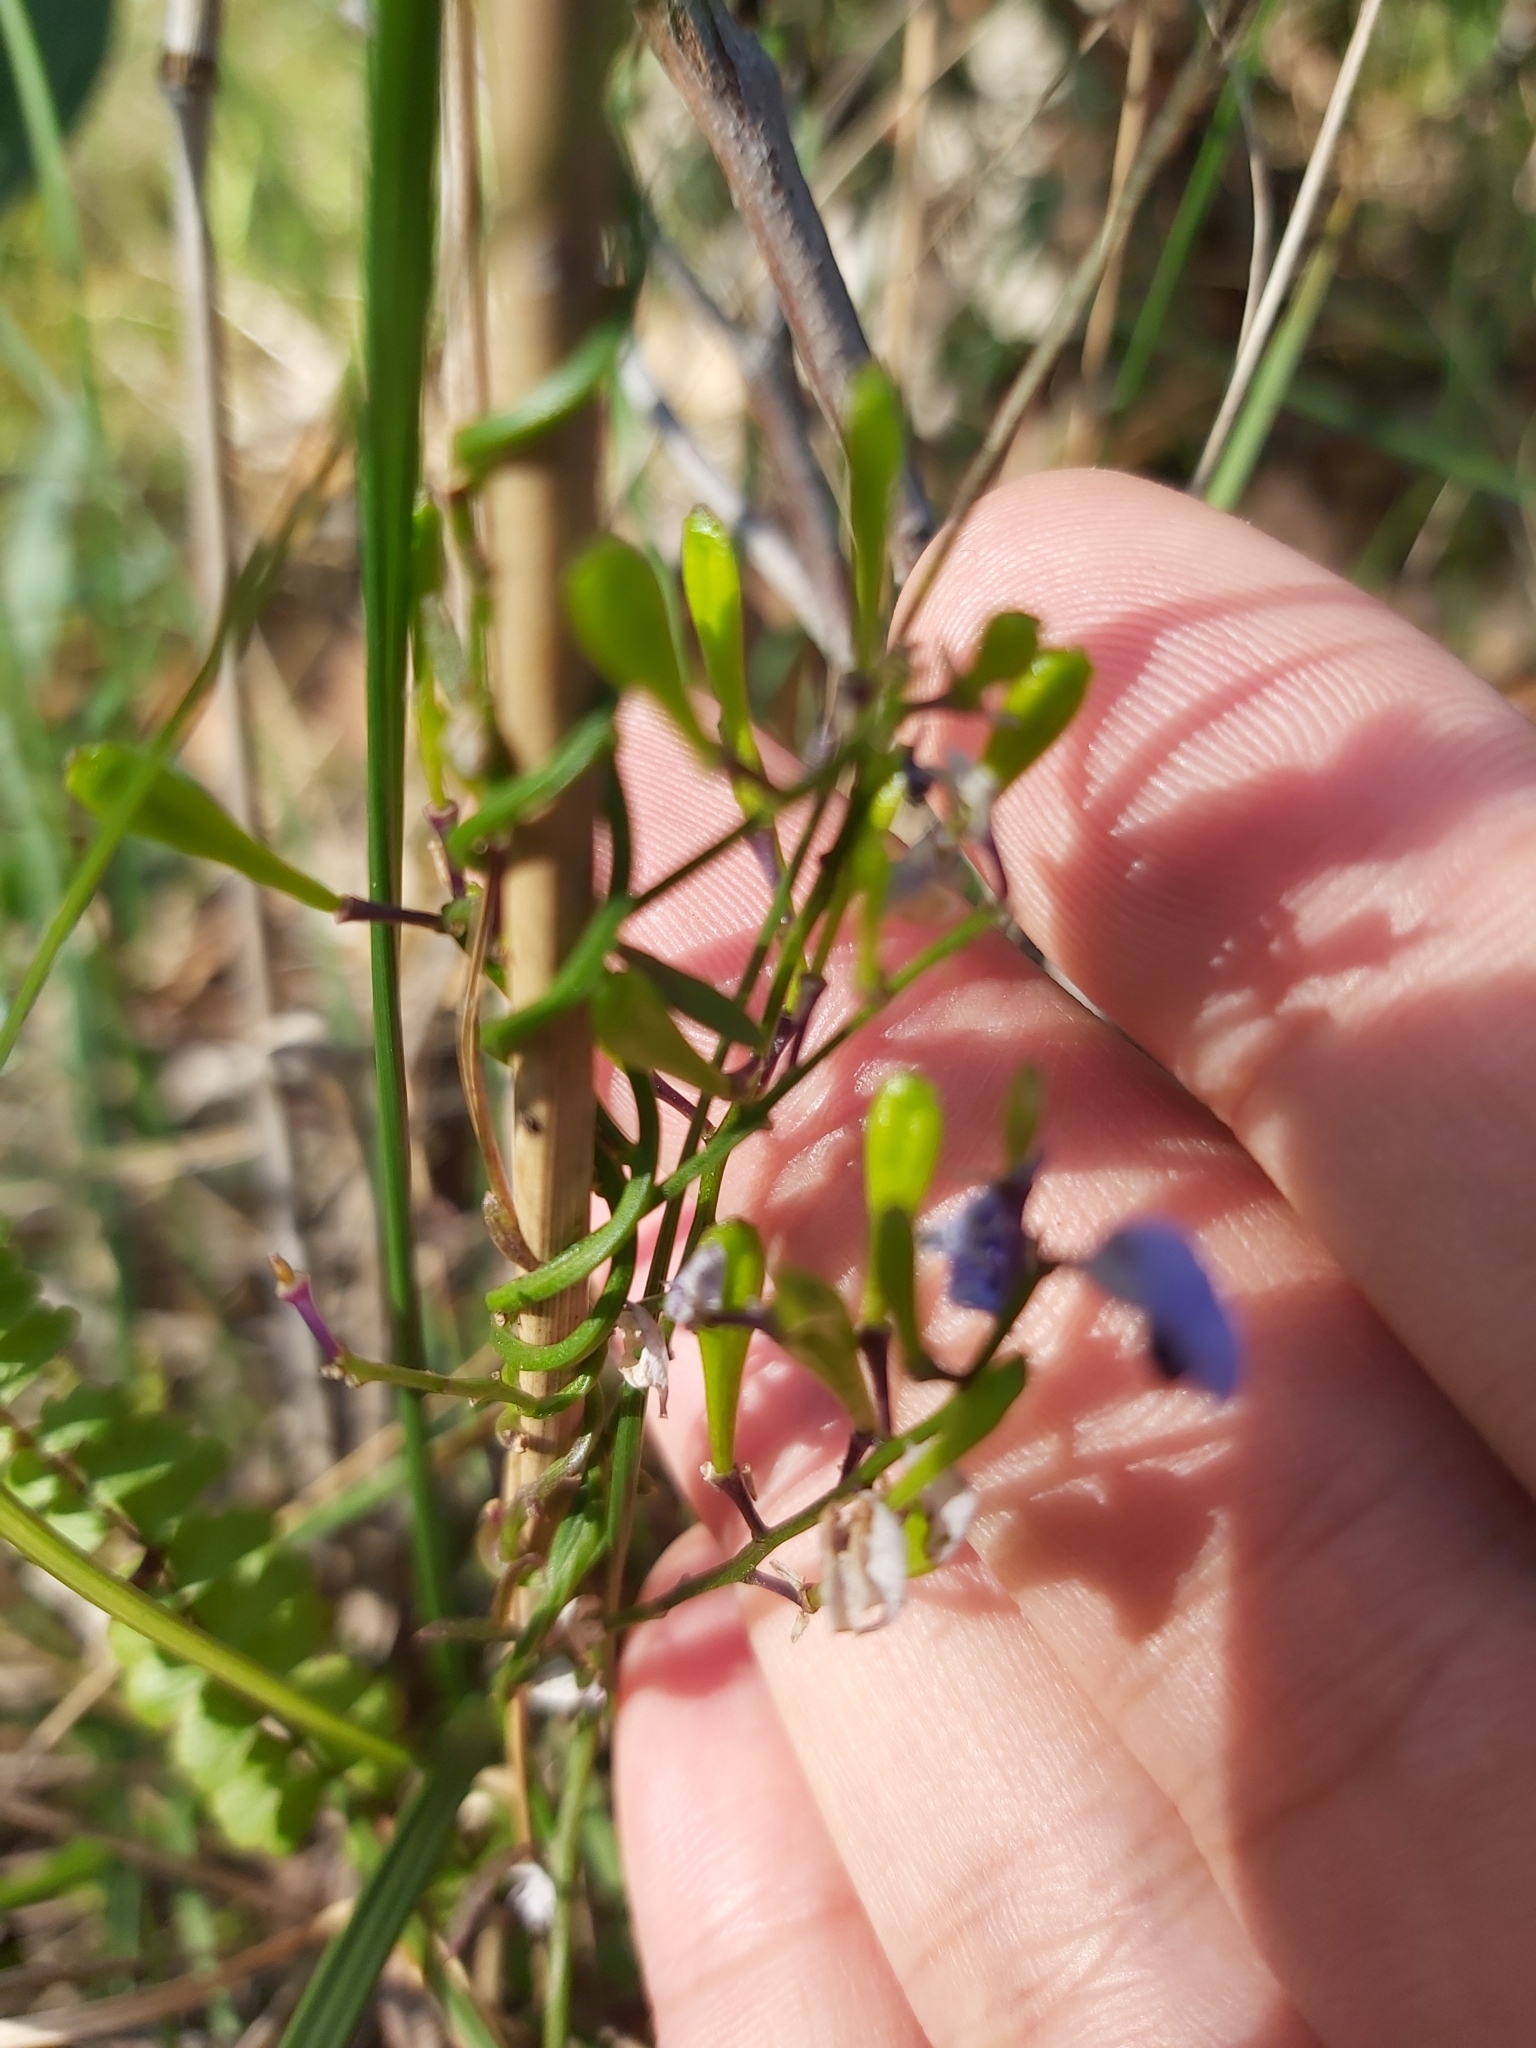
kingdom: Plantae
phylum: Tracheophyta
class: Magnoliopsida
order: Fabales
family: Polygalaceae
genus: Comesperma
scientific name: Comesperma volubile
